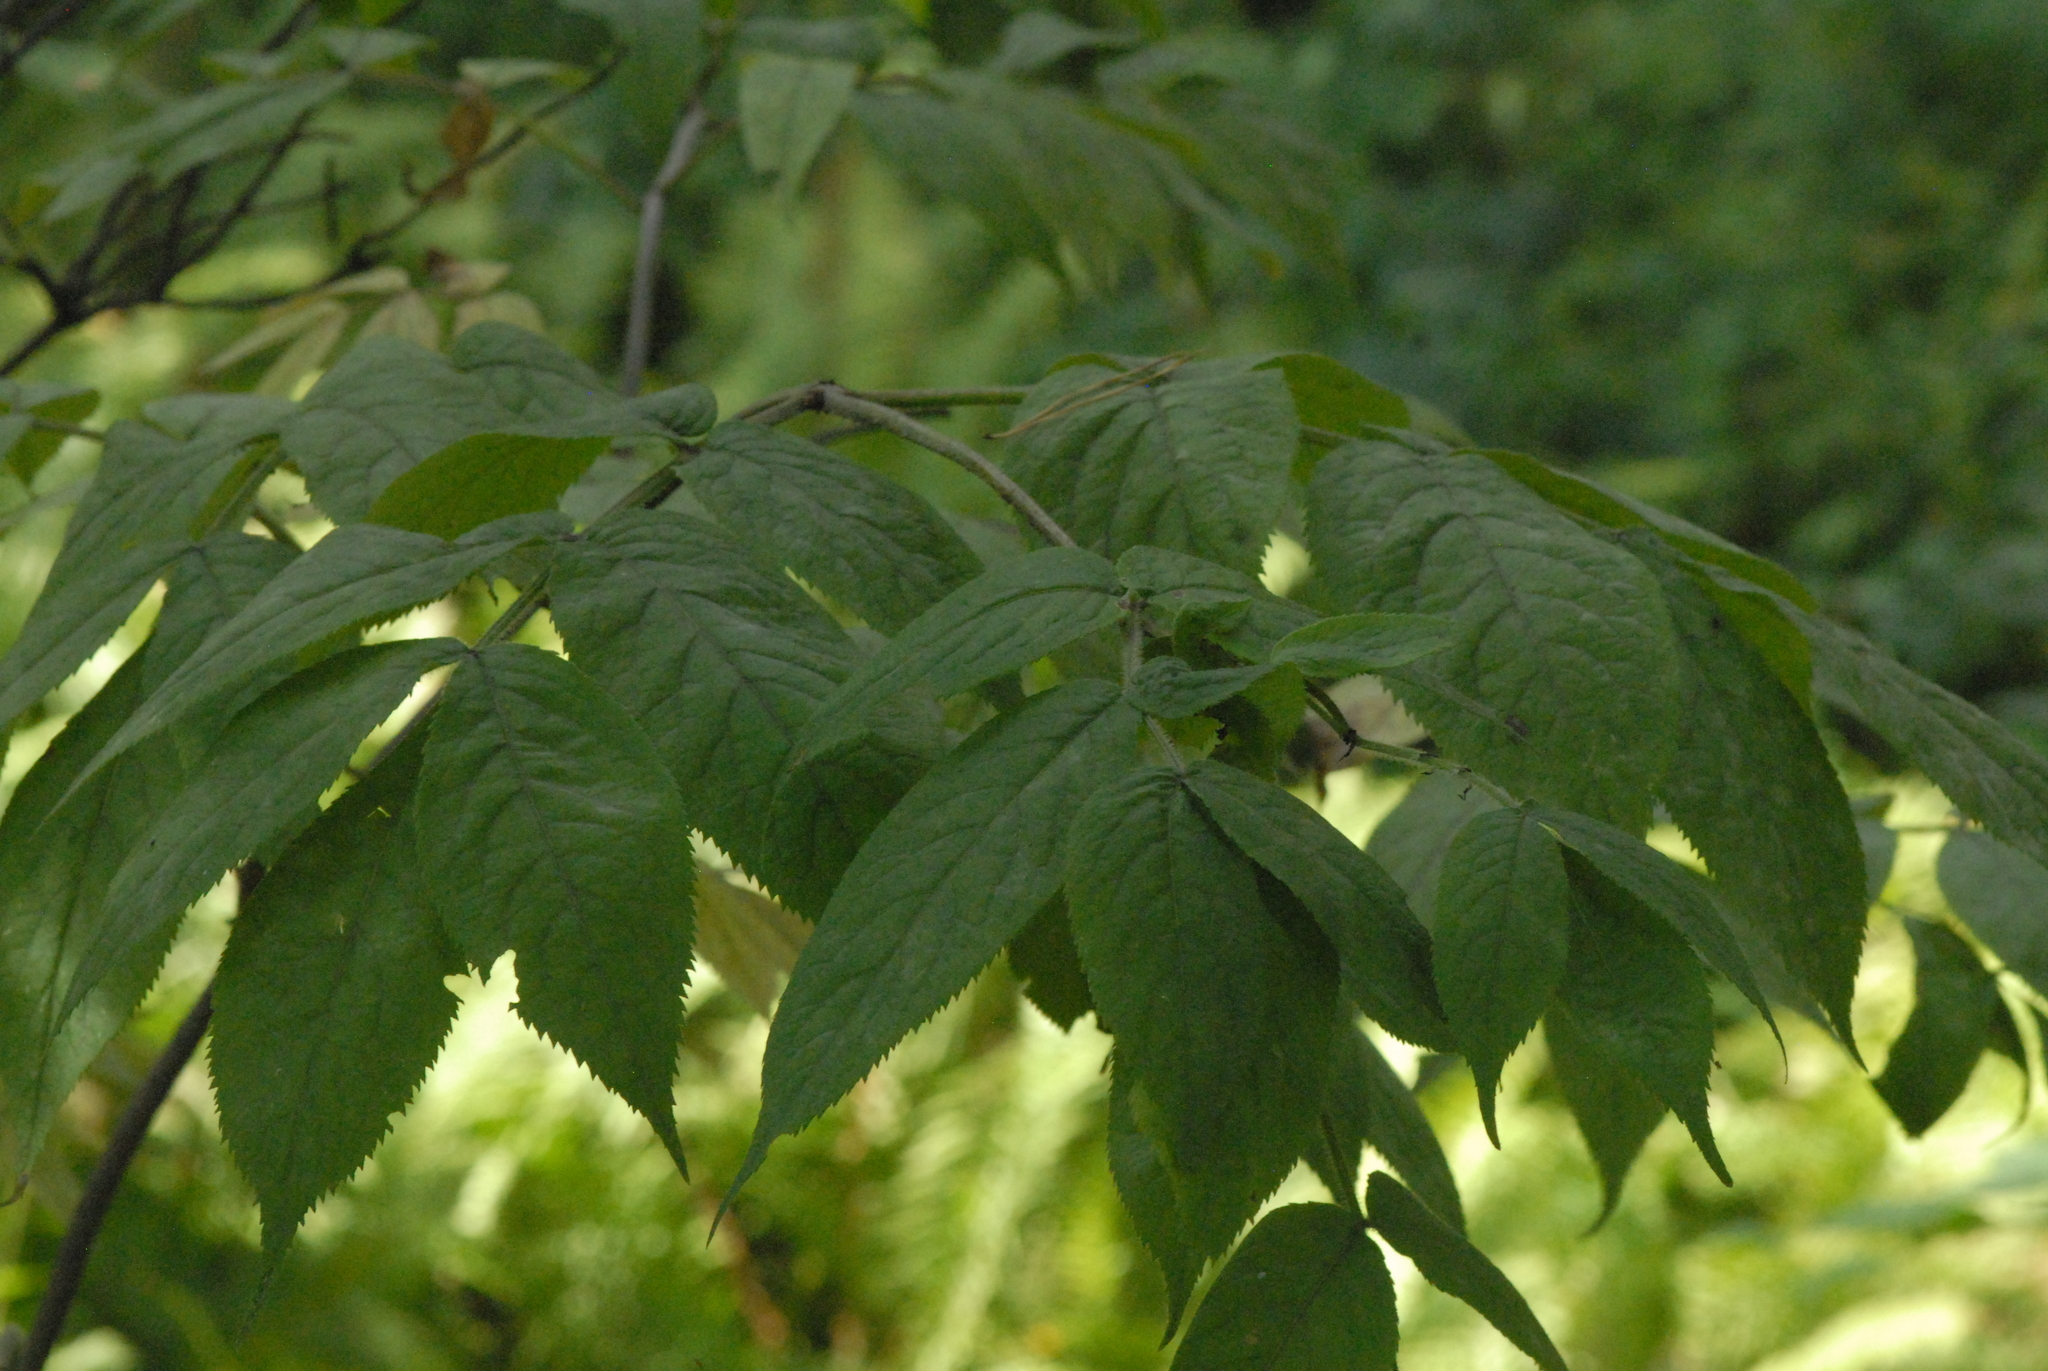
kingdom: Plantae
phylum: Tracheophyta
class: Magnoliopsida
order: Dipsacales
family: Viburnaceae
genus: Sambucus
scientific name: Sambucus racemosa
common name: Red-berried elder
